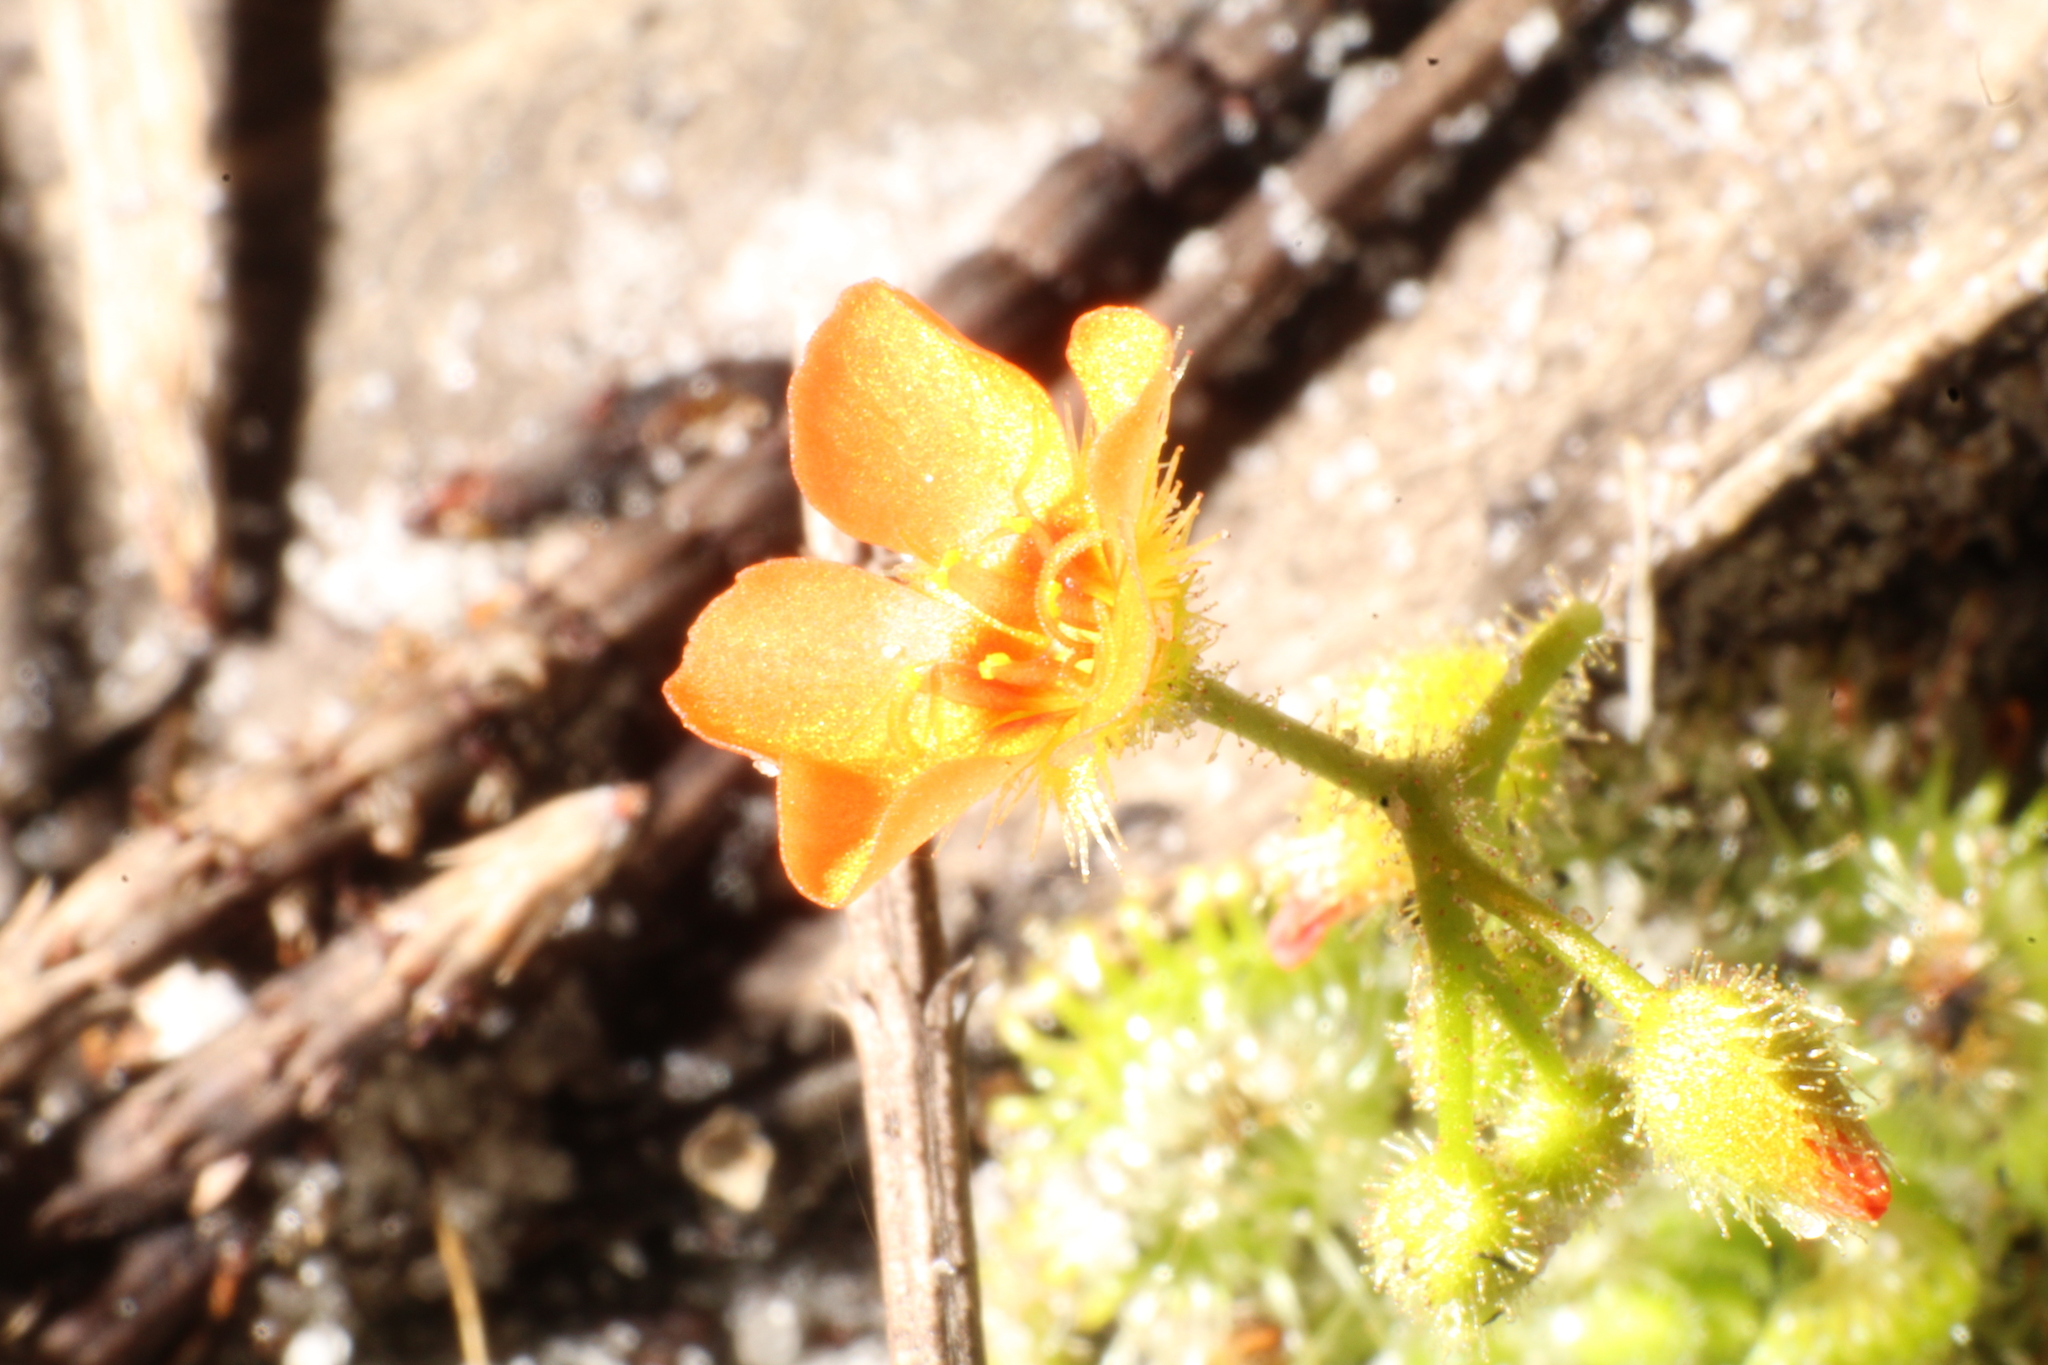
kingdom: Plantae
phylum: Tracheophyta
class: Magnoliopsida
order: Caryophyllales
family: Droseraceae
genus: Drosera
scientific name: Drosera glanduligera
